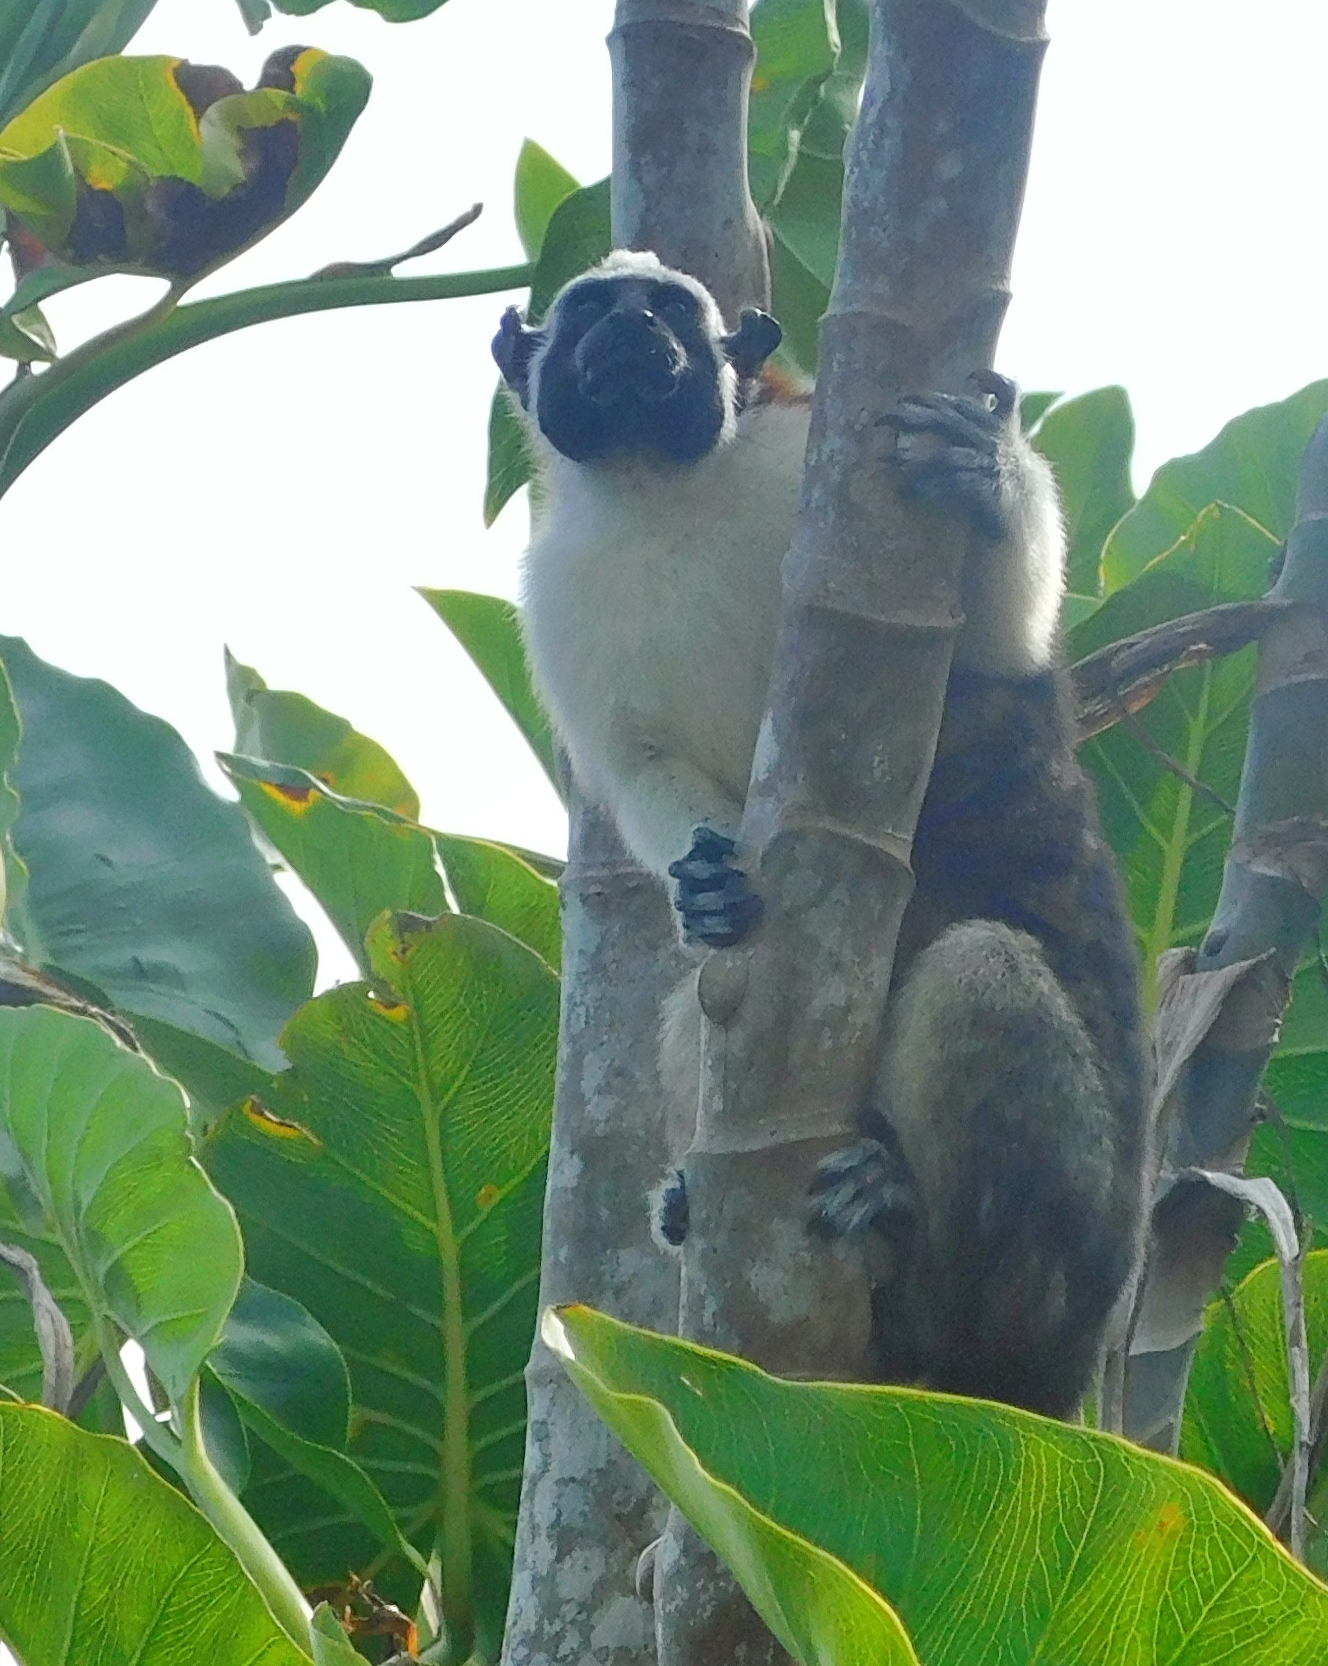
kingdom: Animalia
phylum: Chordata
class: Mammalia
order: Primates
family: Callitrichidae
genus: Saguinus
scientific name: Saguinus geoffroyi
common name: Geoffroy s tamarin
